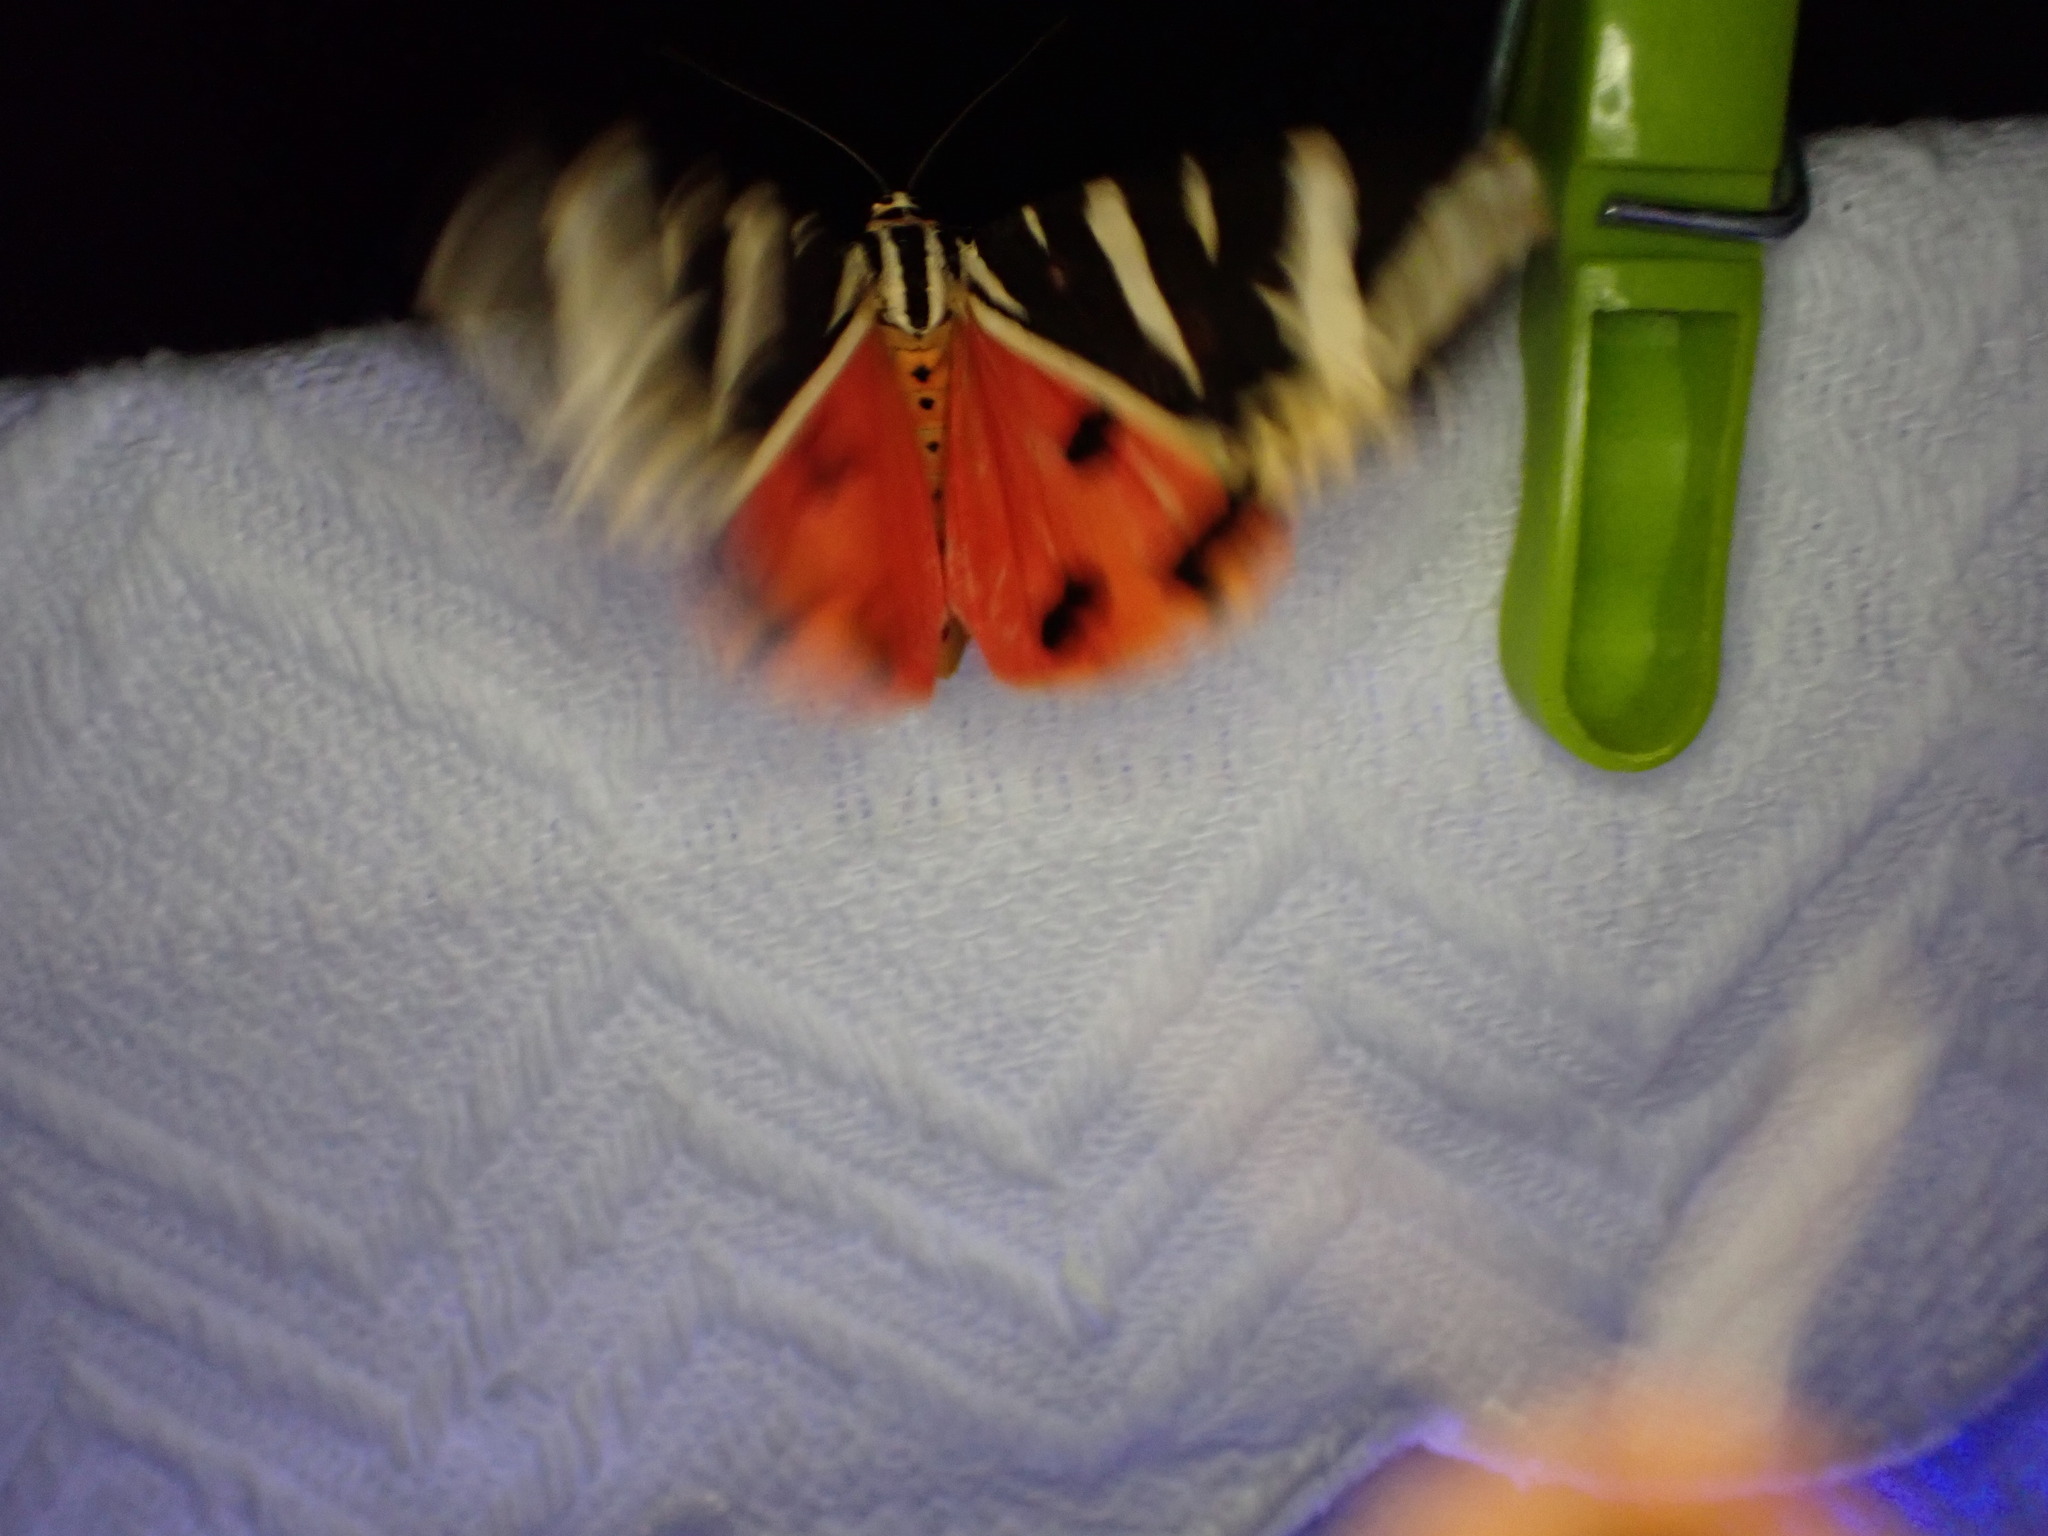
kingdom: Animalia
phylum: Arthropoda
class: Insecta
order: Lepidoptera
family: Erebidae
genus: Euplagia
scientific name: Euplagia quadripunctaria
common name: Jersey tiger
